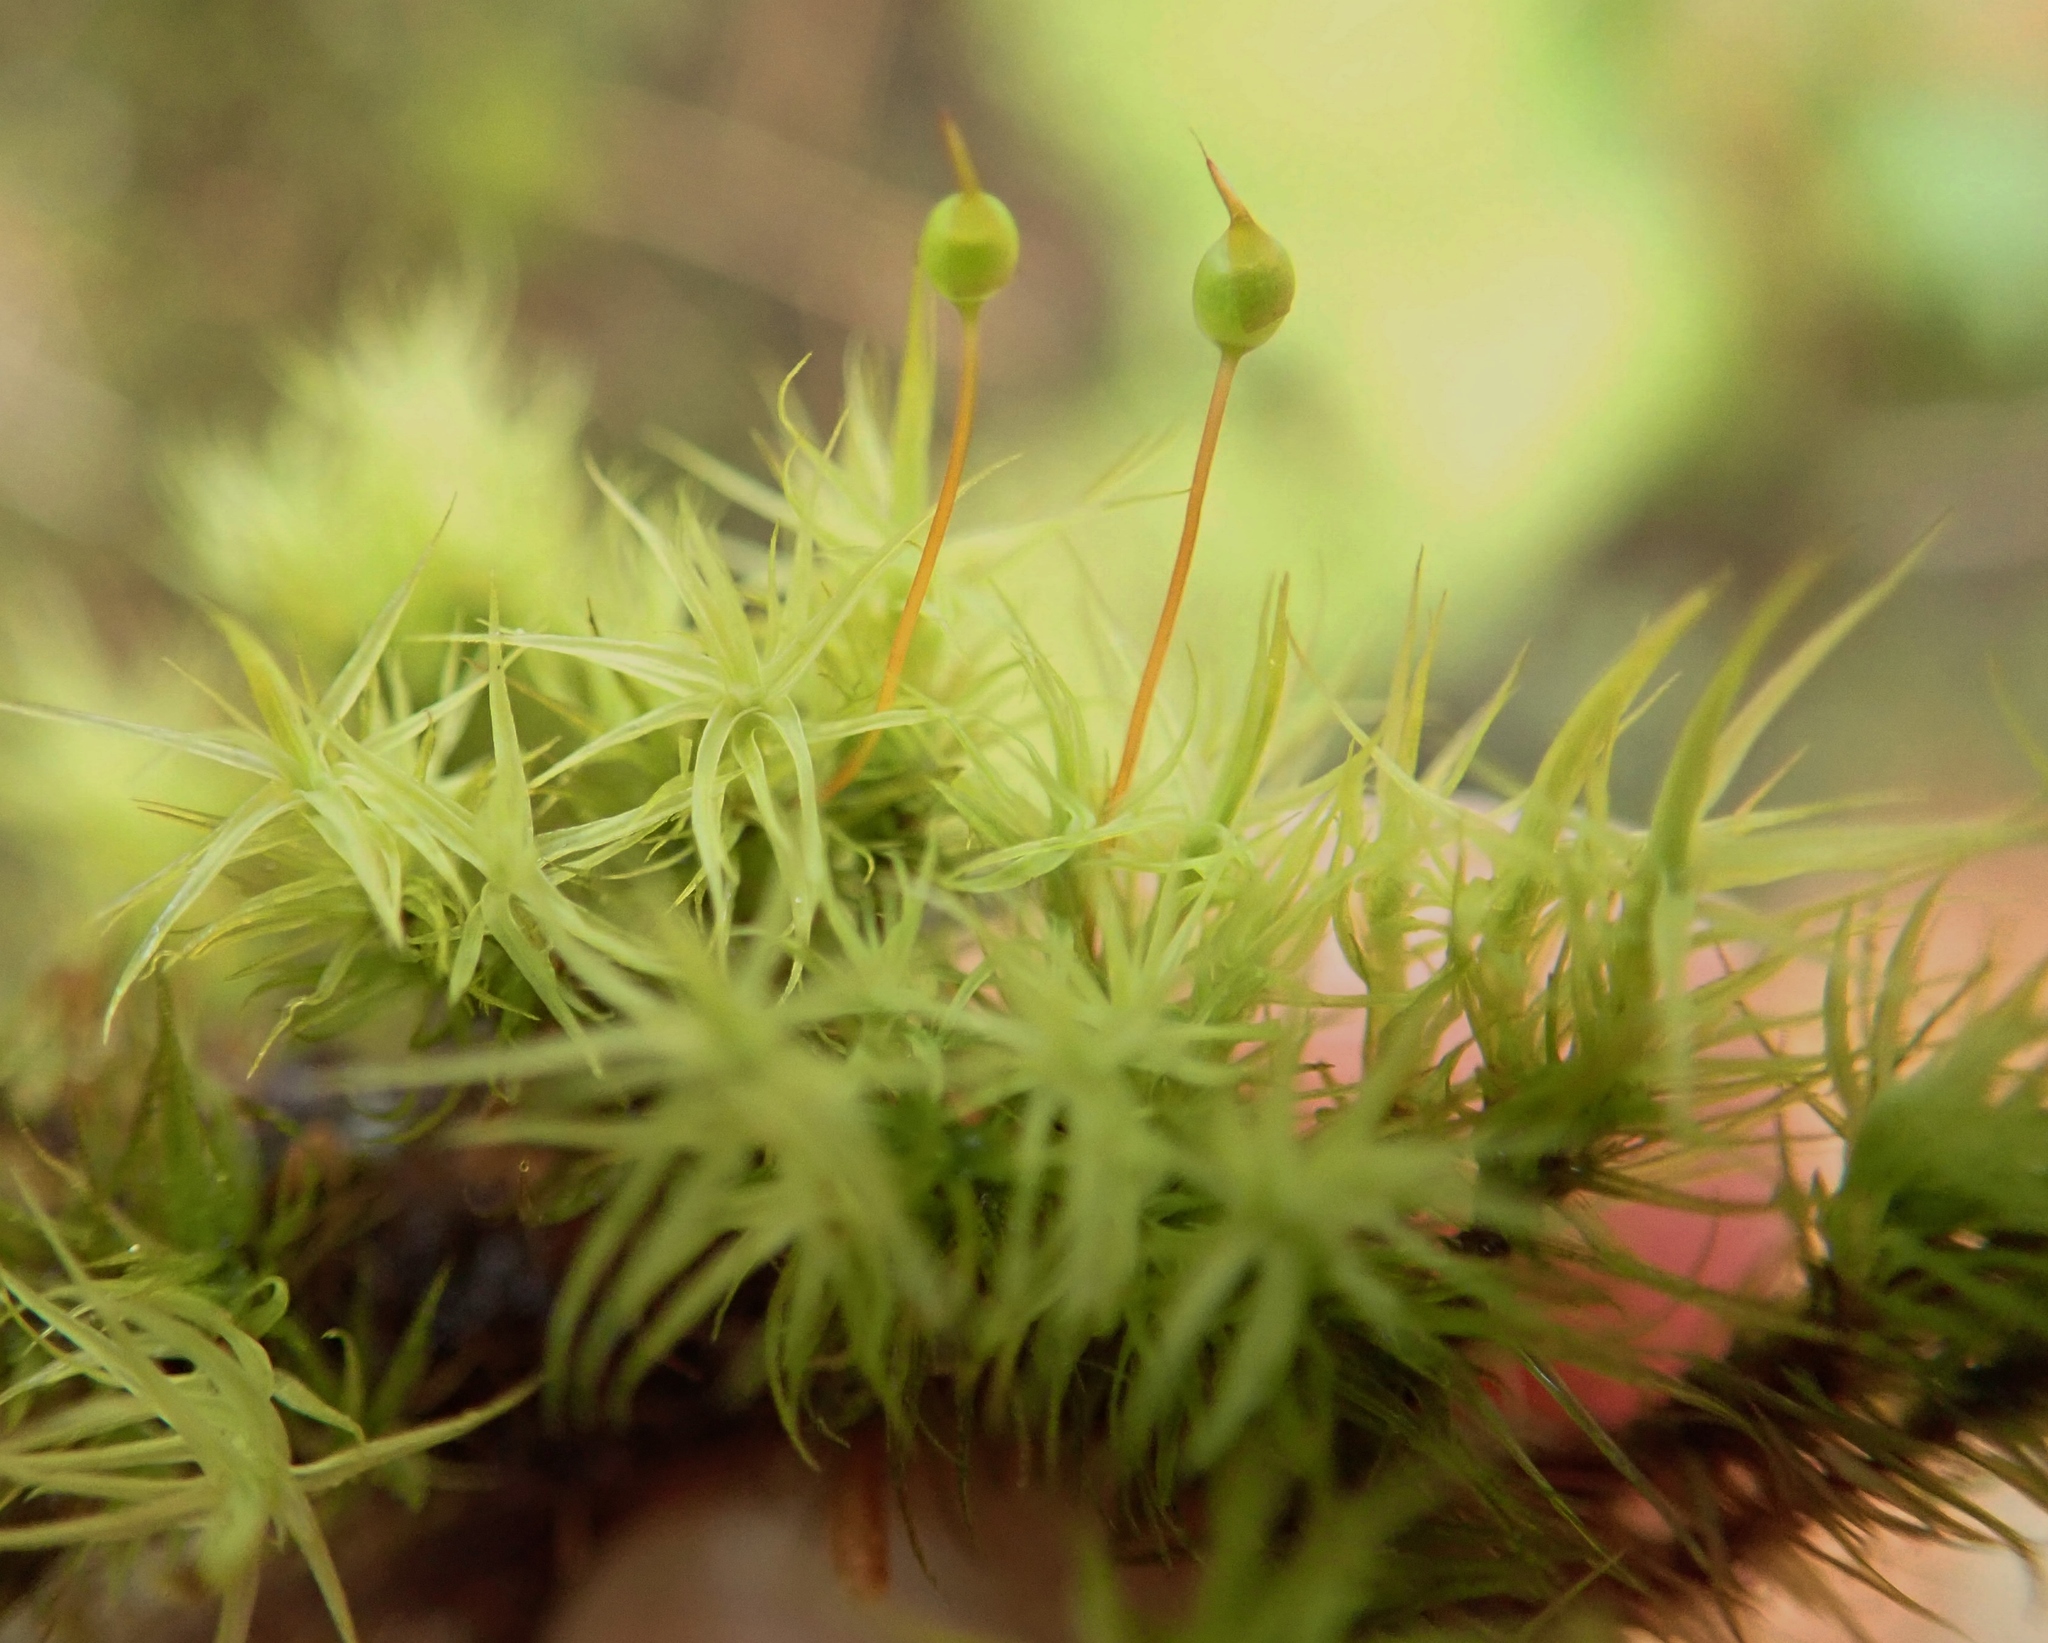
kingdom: Plantae
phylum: Bryophyta
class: Bryopsida
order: Bartramiales
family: Bartramiaceae
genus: Bartramia
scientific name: Bartramia ithyphylla
